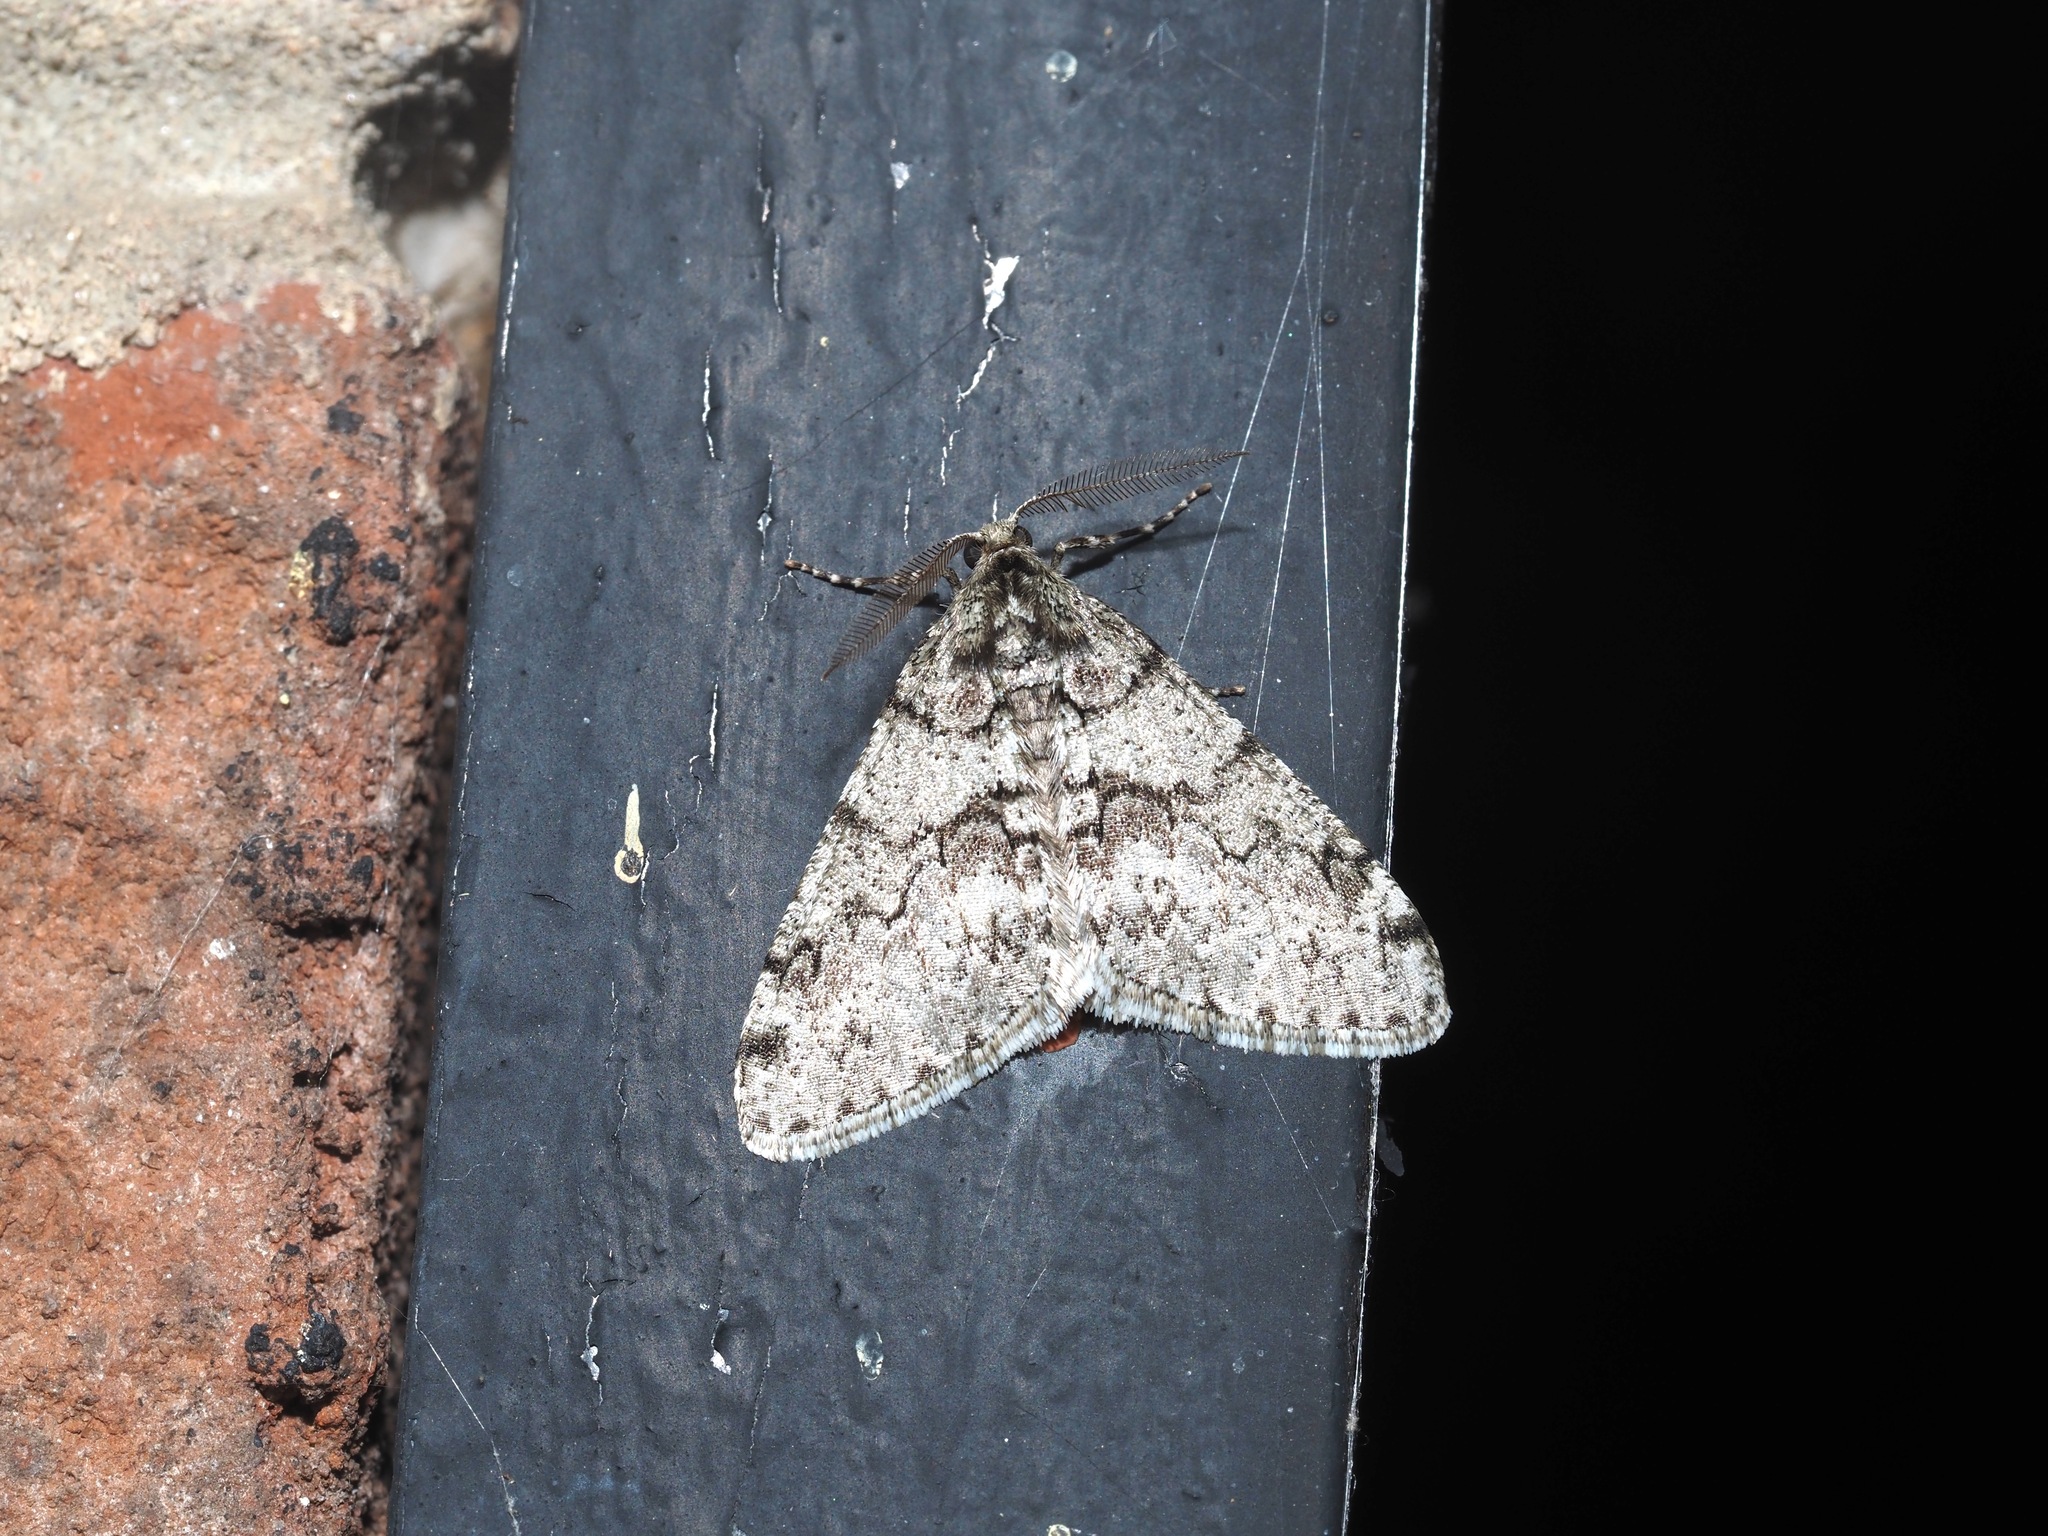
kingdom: Animalia
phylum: Arthropoda
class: Insecta
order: Lepidoptera
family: Geometridae
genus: Phigalia
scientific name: Phigalia denticulata
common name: Toothed phigalia
